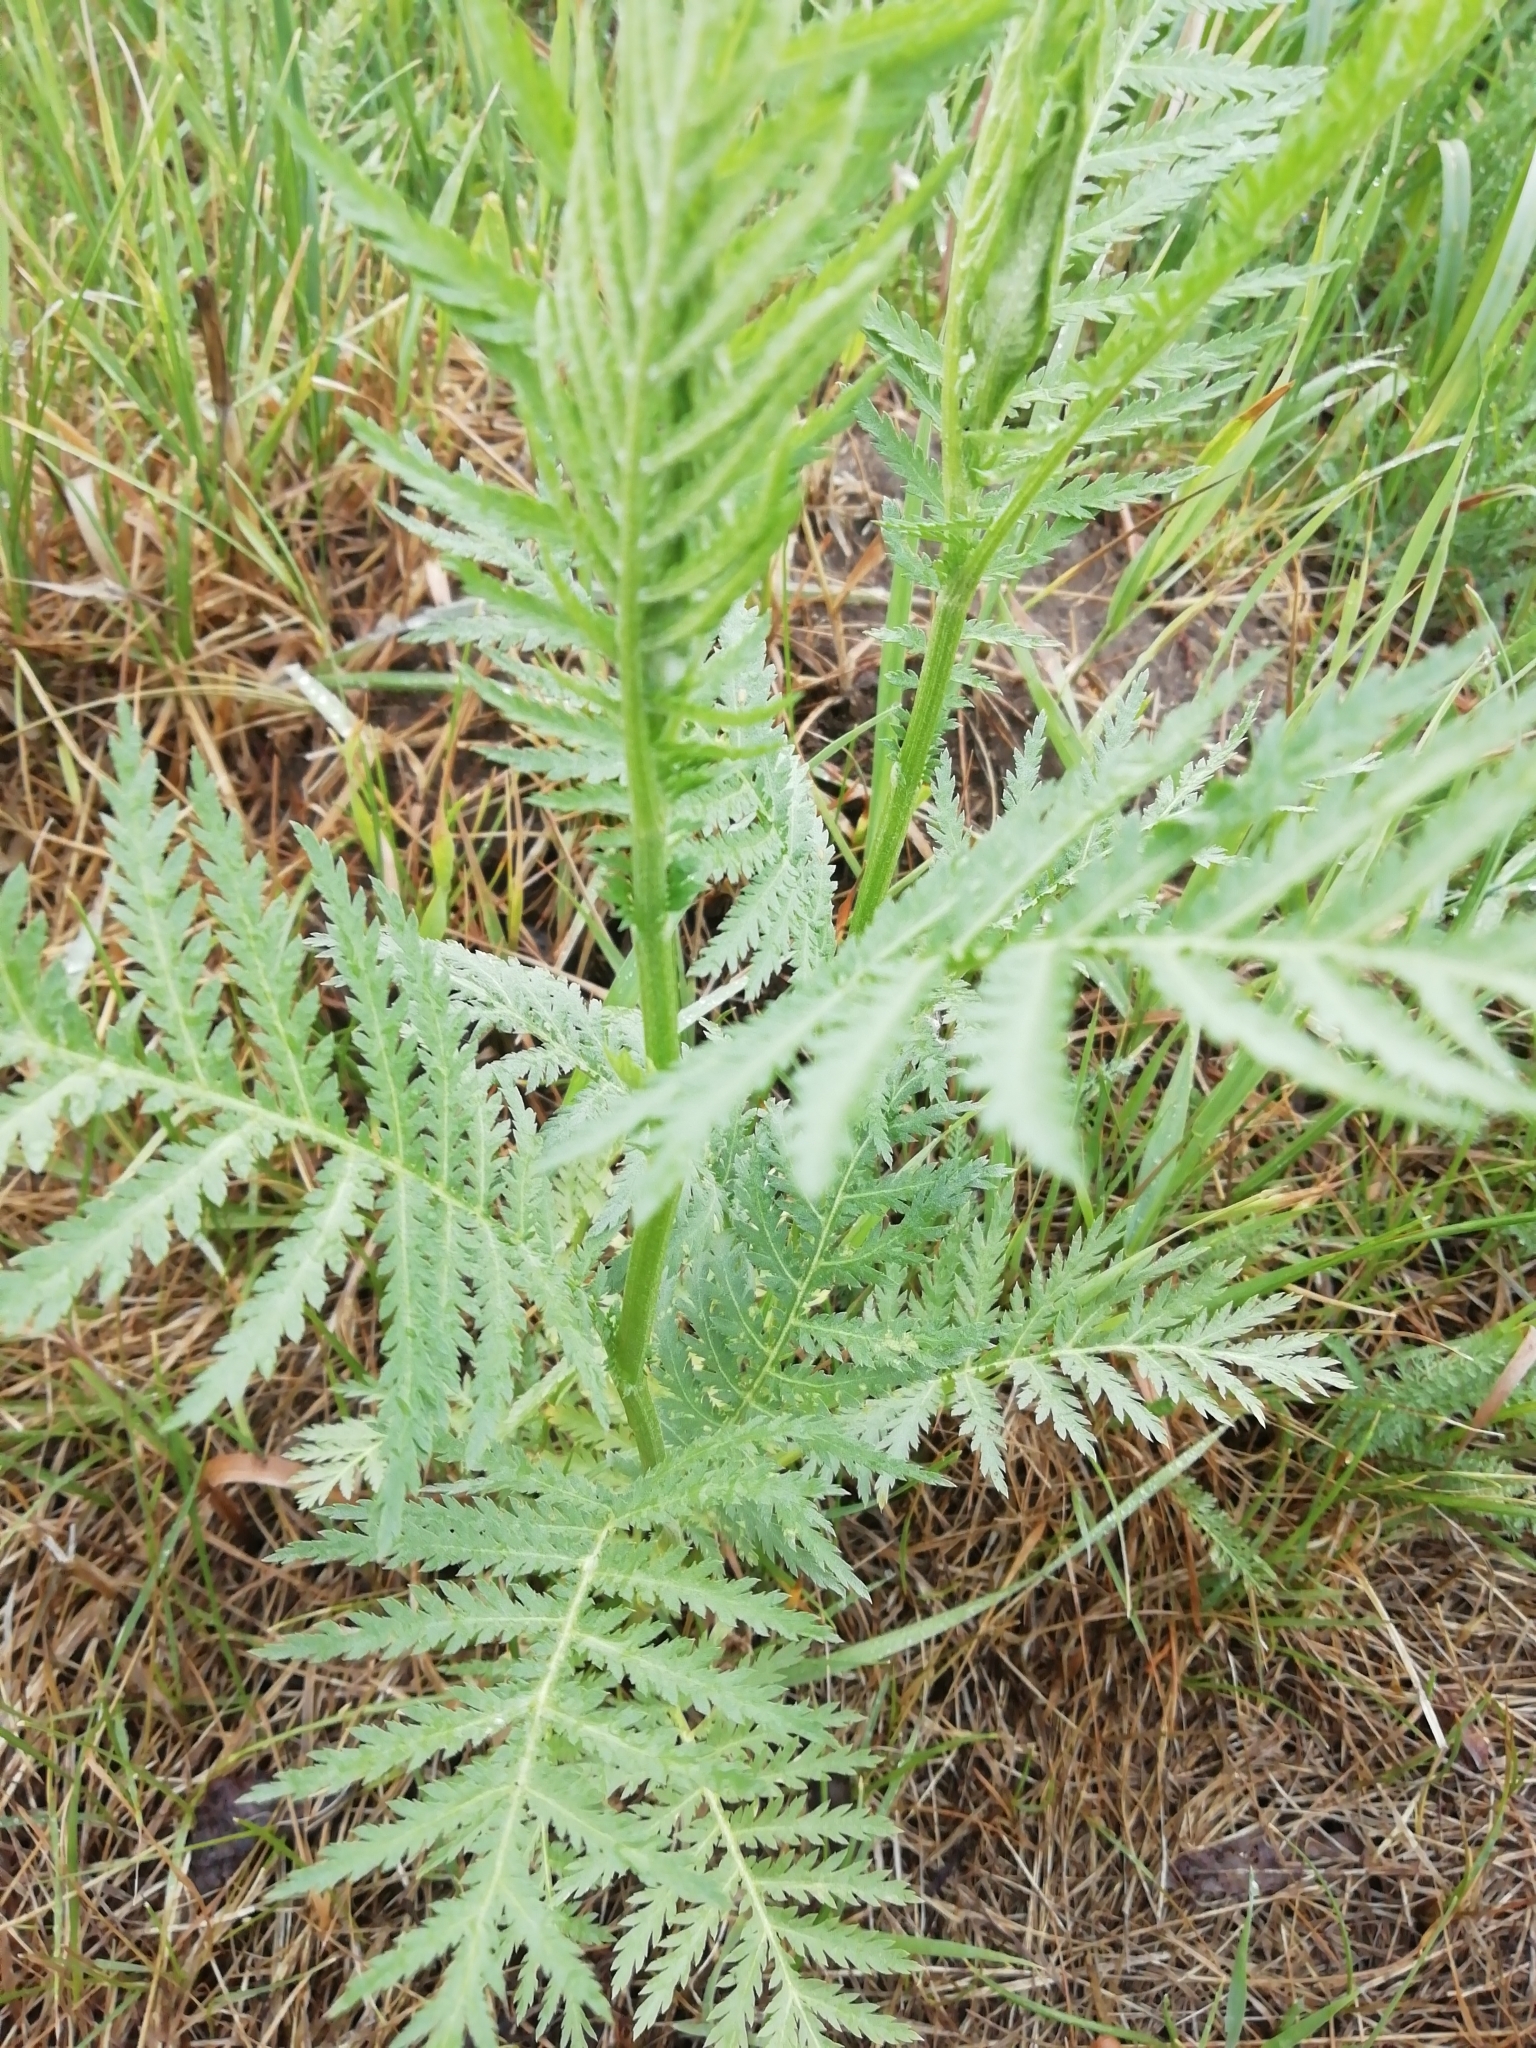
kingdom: Plantae
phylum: Tracheophyta
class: Magnoliopsida
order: Asterales
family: Asteraceae
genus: Tanacetum
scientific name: Tanacetum vulgare
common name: Common tansy
